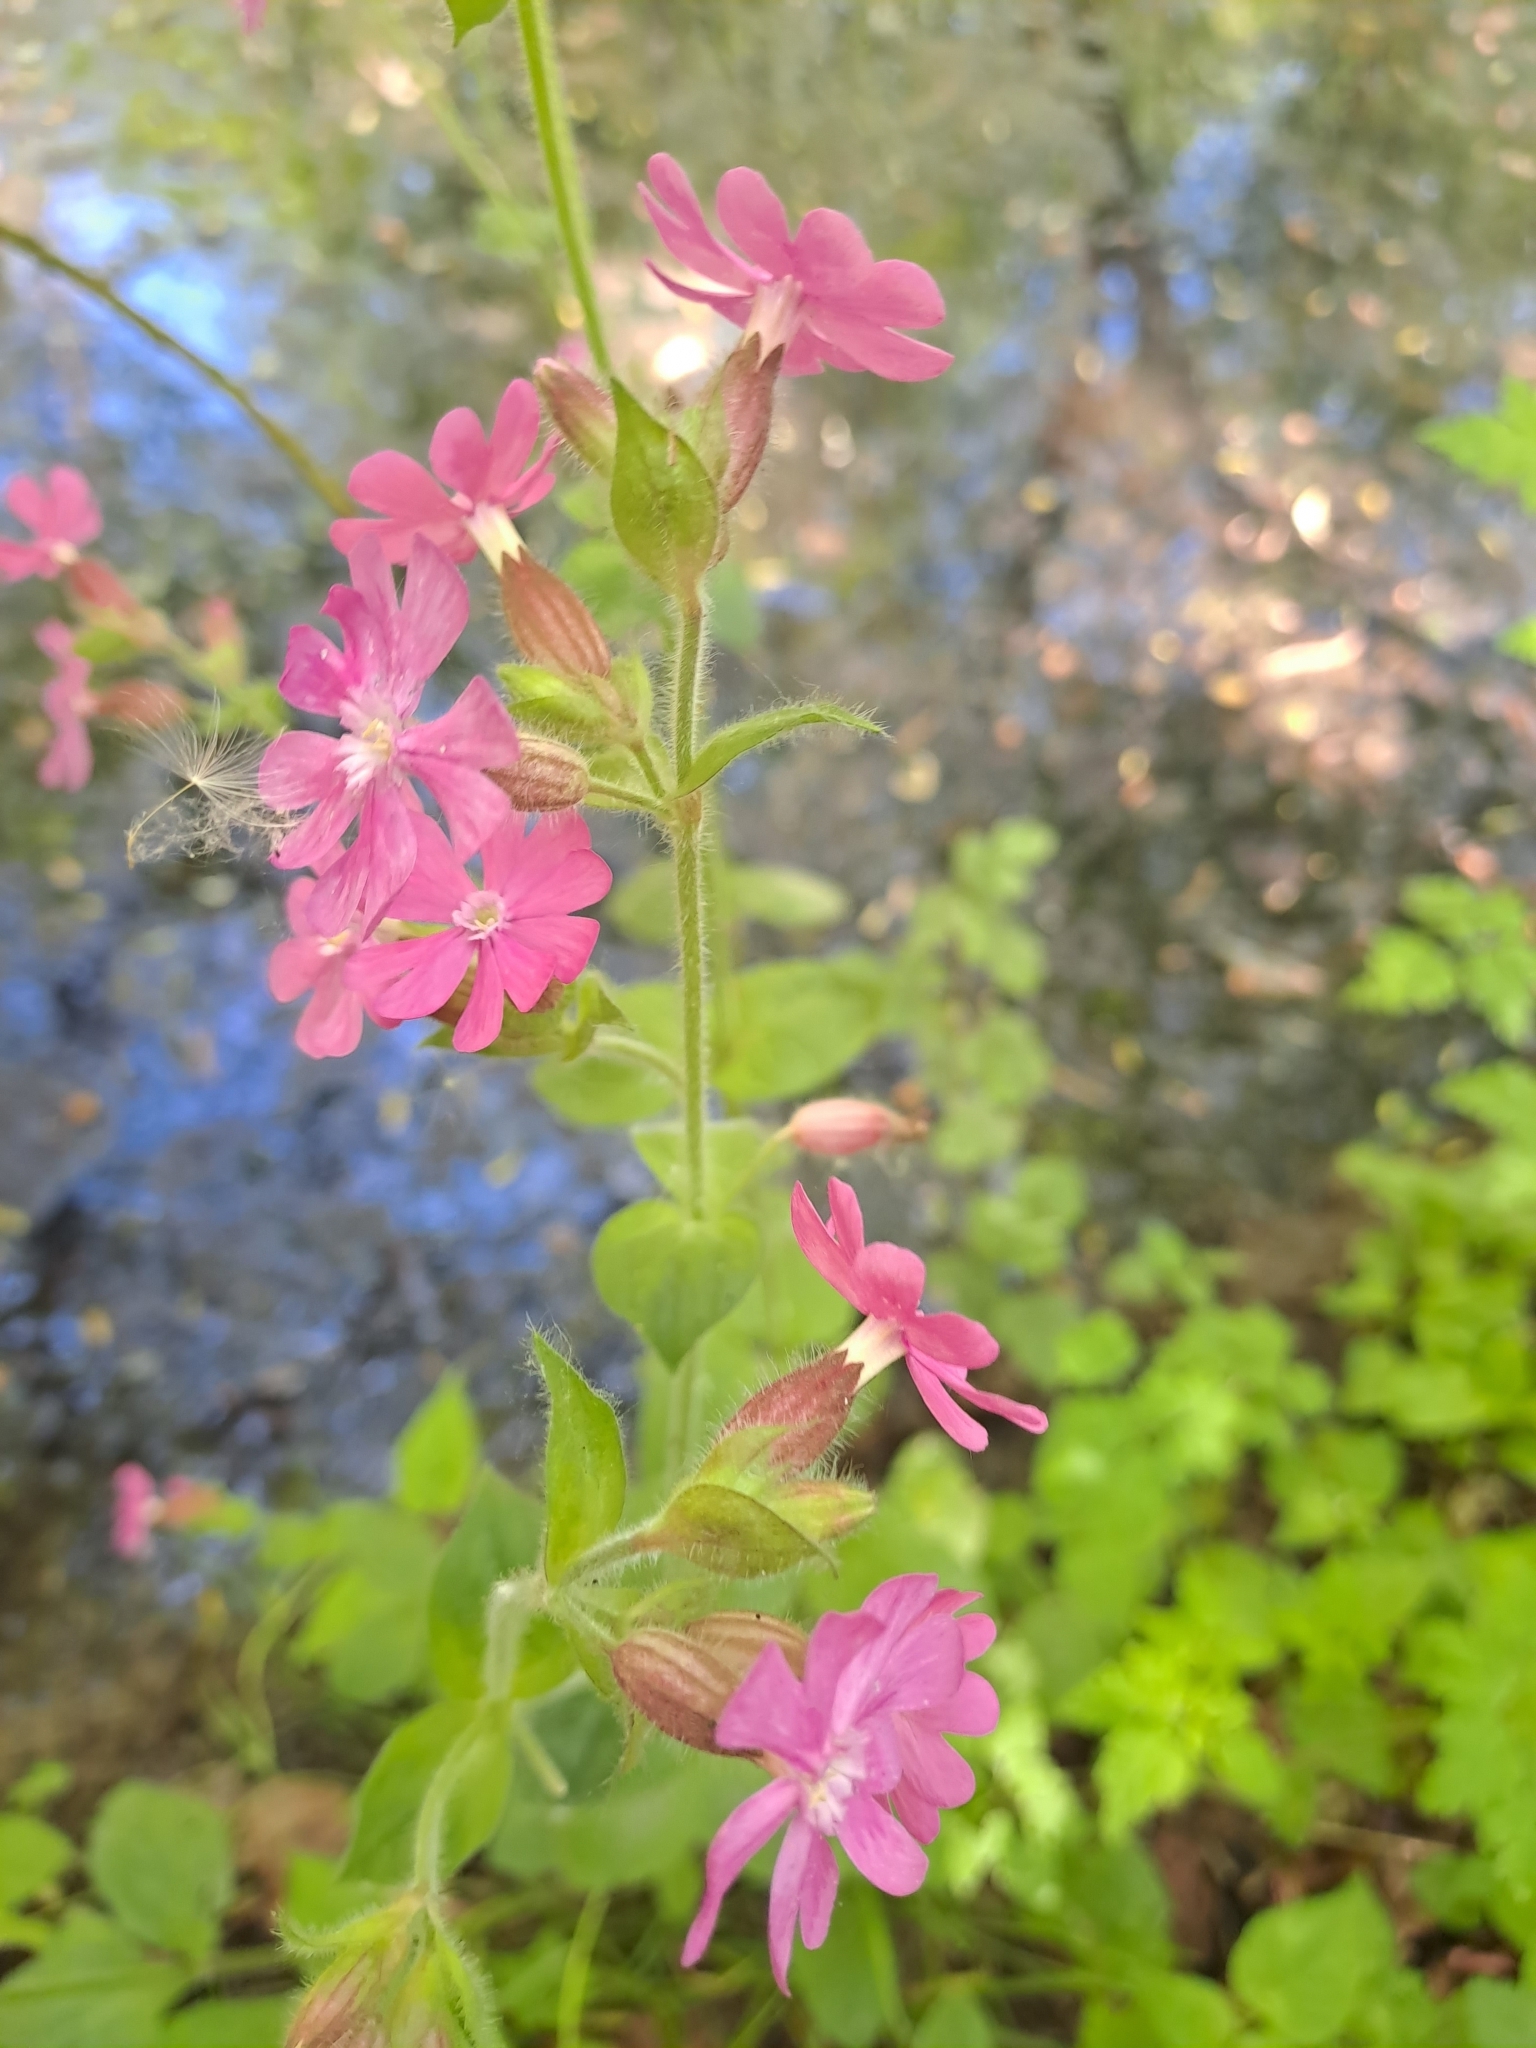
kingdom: Plantae
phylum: Tracheophyta
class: Magnoliopsida
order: Caryophyllales
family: Caryophyllaceae
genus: Silene
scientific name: Silene dioica
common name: Red campion
